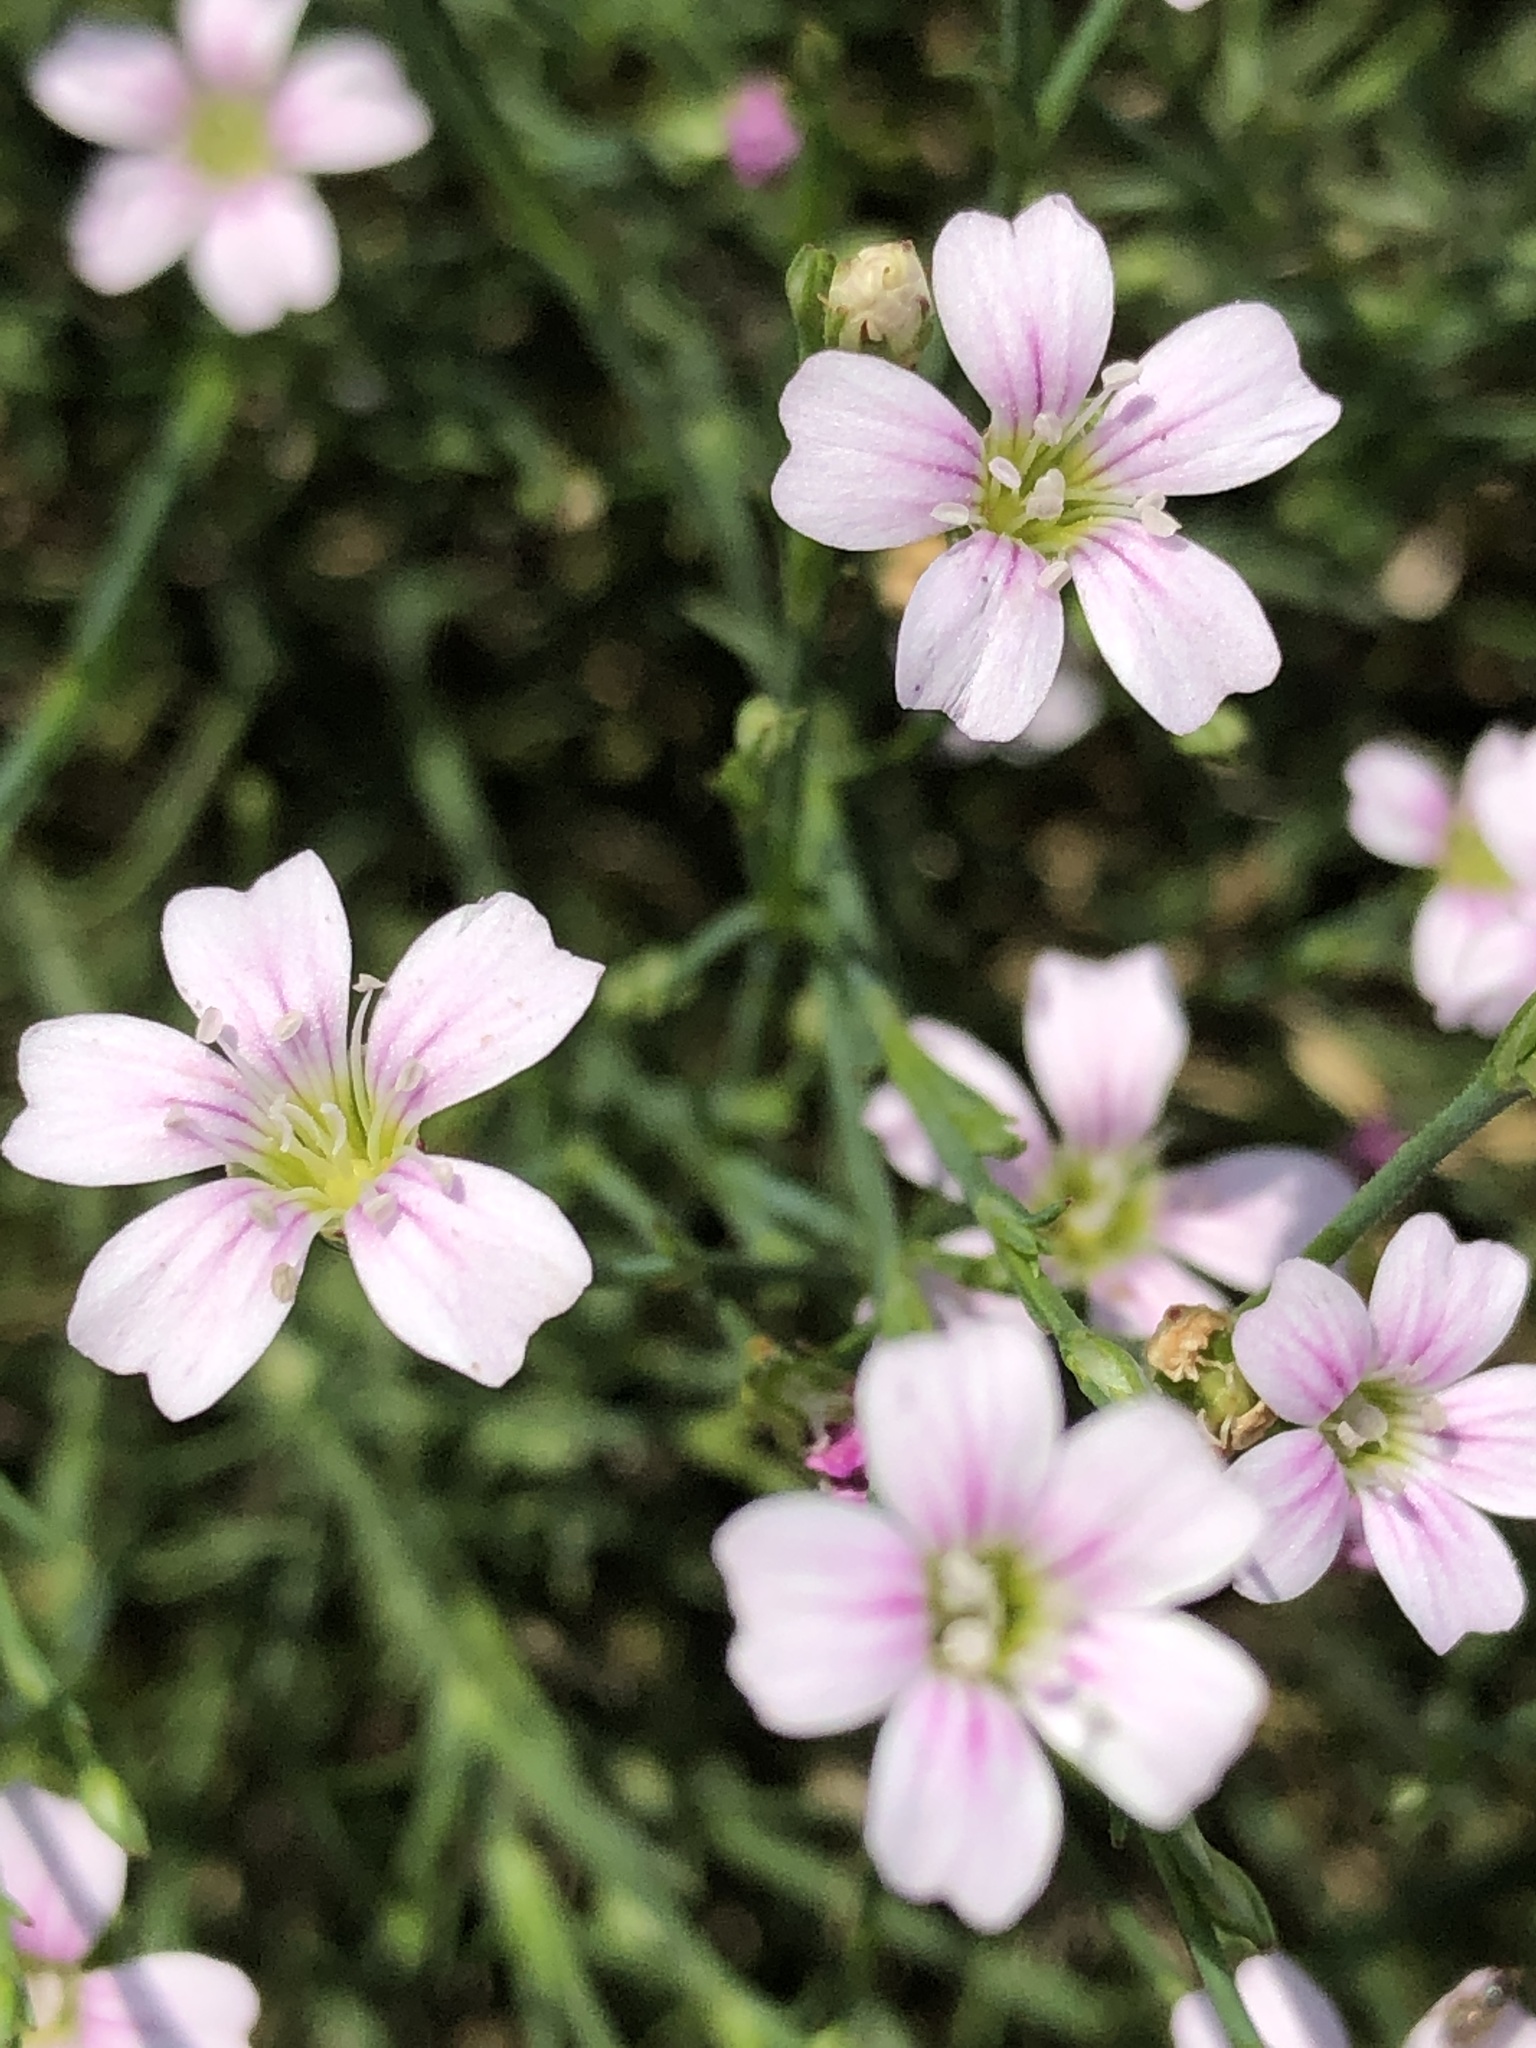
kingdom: Plantae
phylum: Tracheophyta
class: Magnoliopsida
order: Caryophyllales
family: Caryophyllaceae
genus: Petrorhagia
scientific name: Petrorhagia saxifraga
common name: Tunicflower
